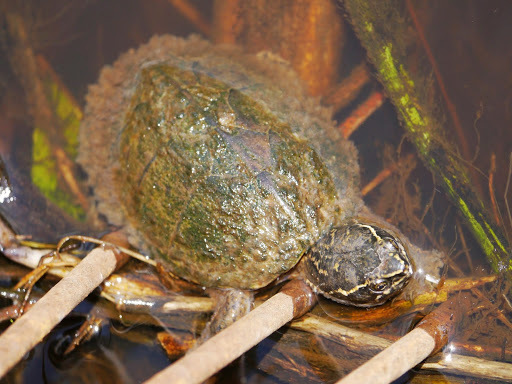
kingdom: Animalia
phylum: Chordata
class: Testudines
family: Kinosternidae
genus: Sternotherus
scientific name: Sternotherus odoratus
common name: Common musk turtle
